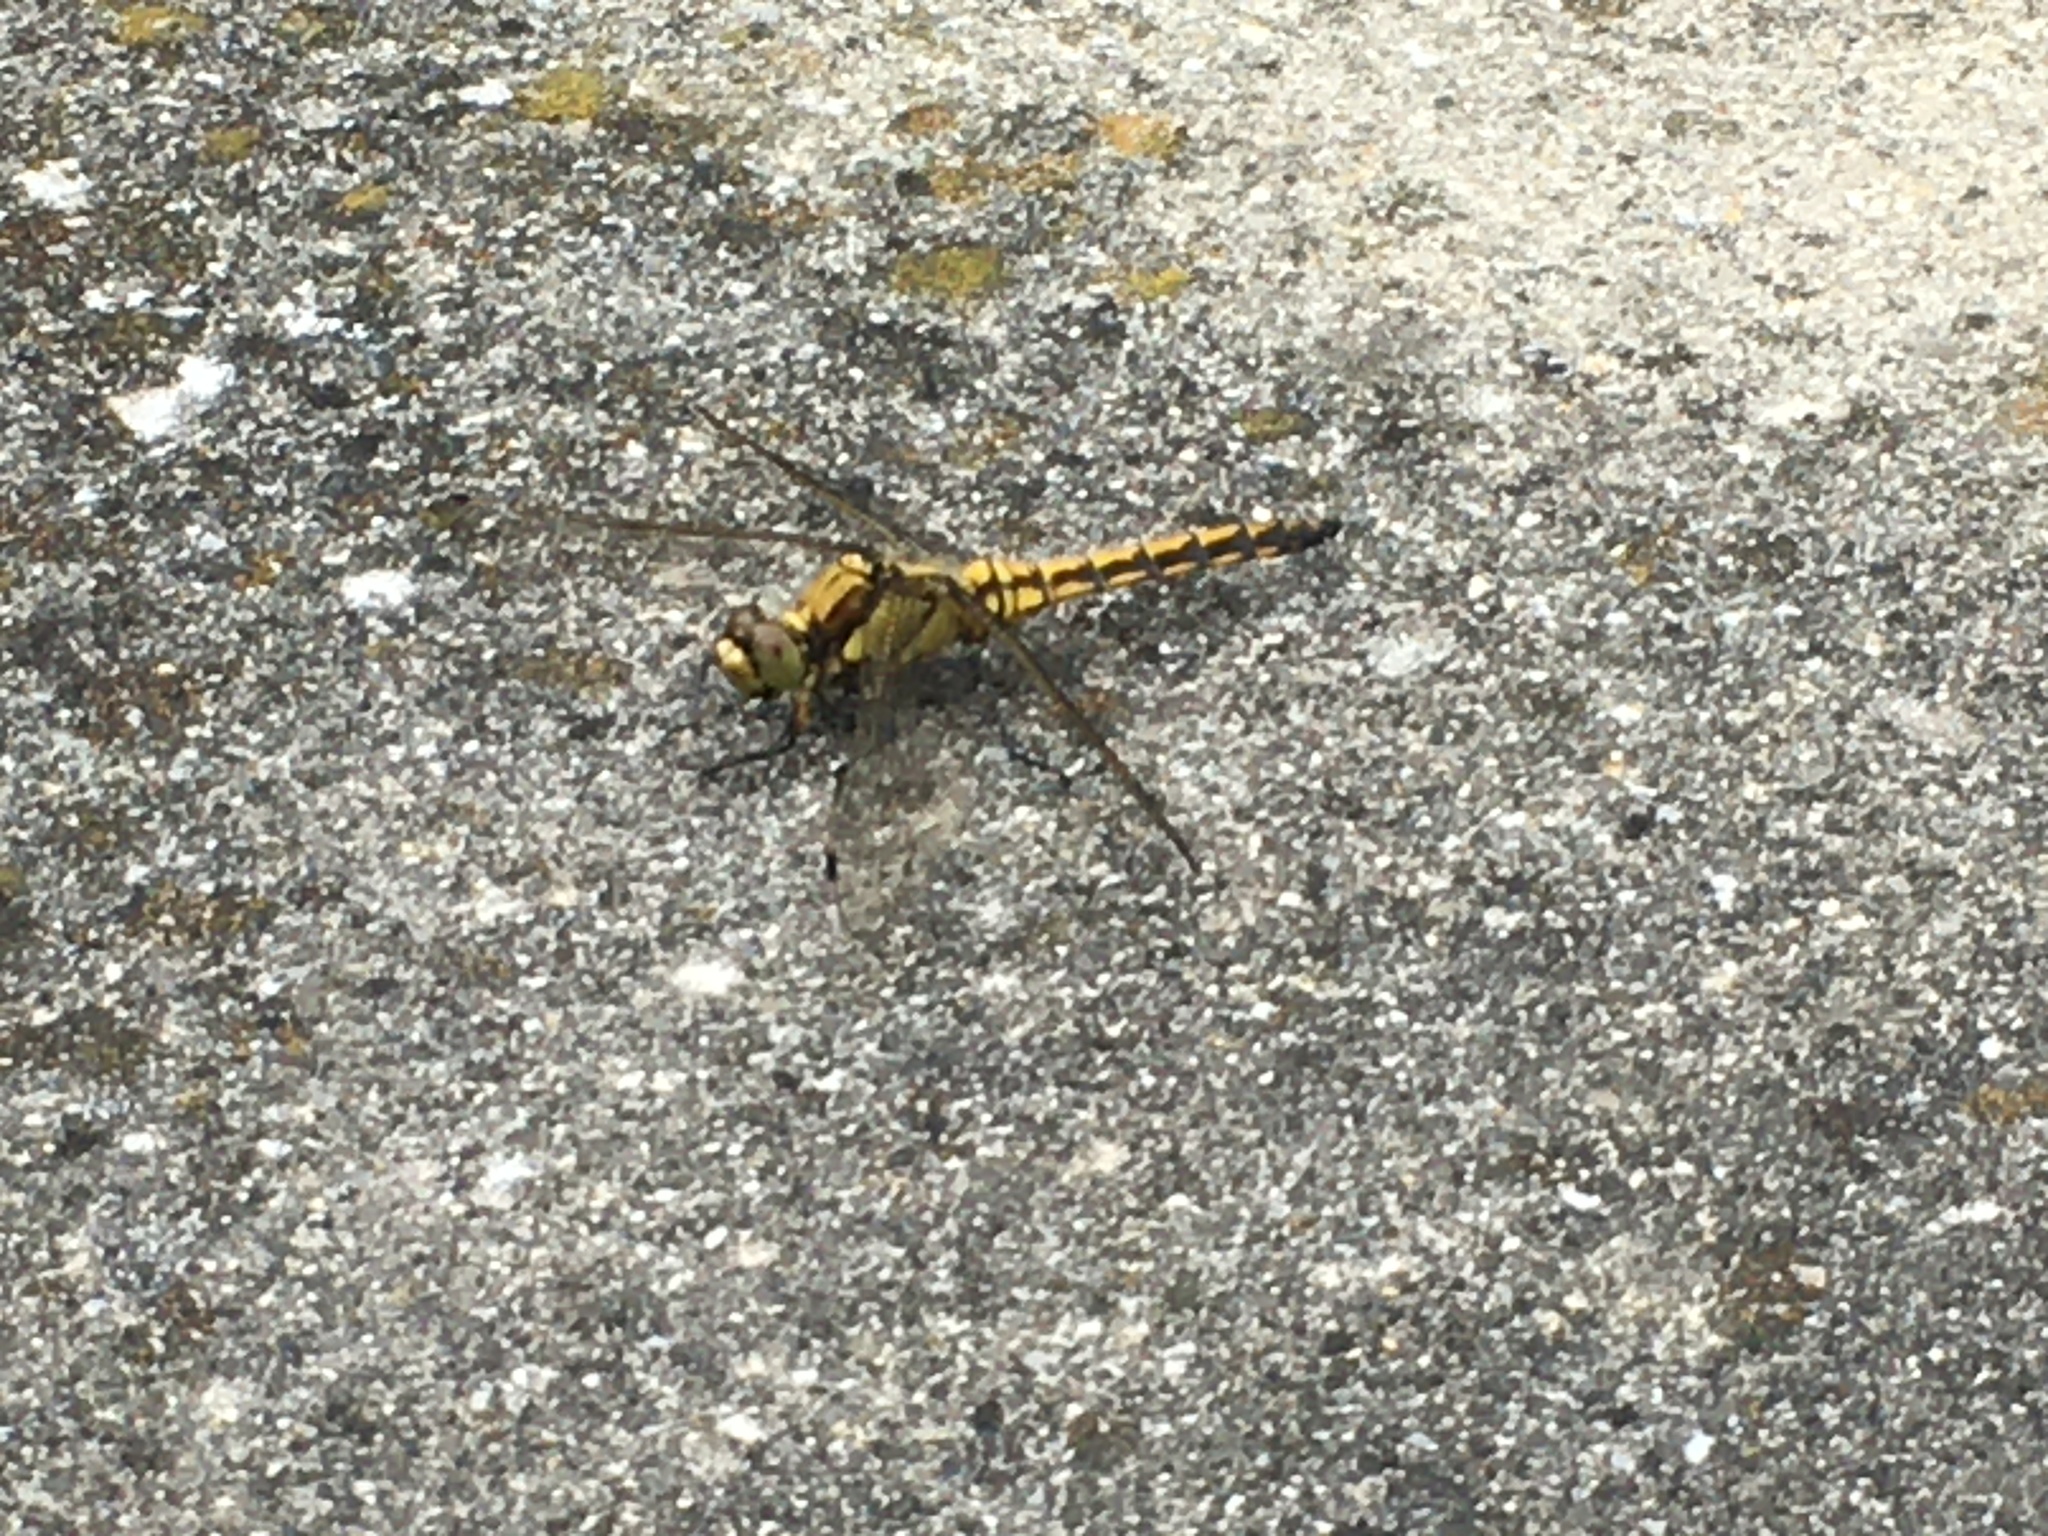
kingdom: Animalia
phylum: Arthropoda
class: Insecta
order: Odonata
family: Libellulidae
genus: Orthetrum
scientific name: Orthetrum cancellatum
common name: Black-tailed skimmer
